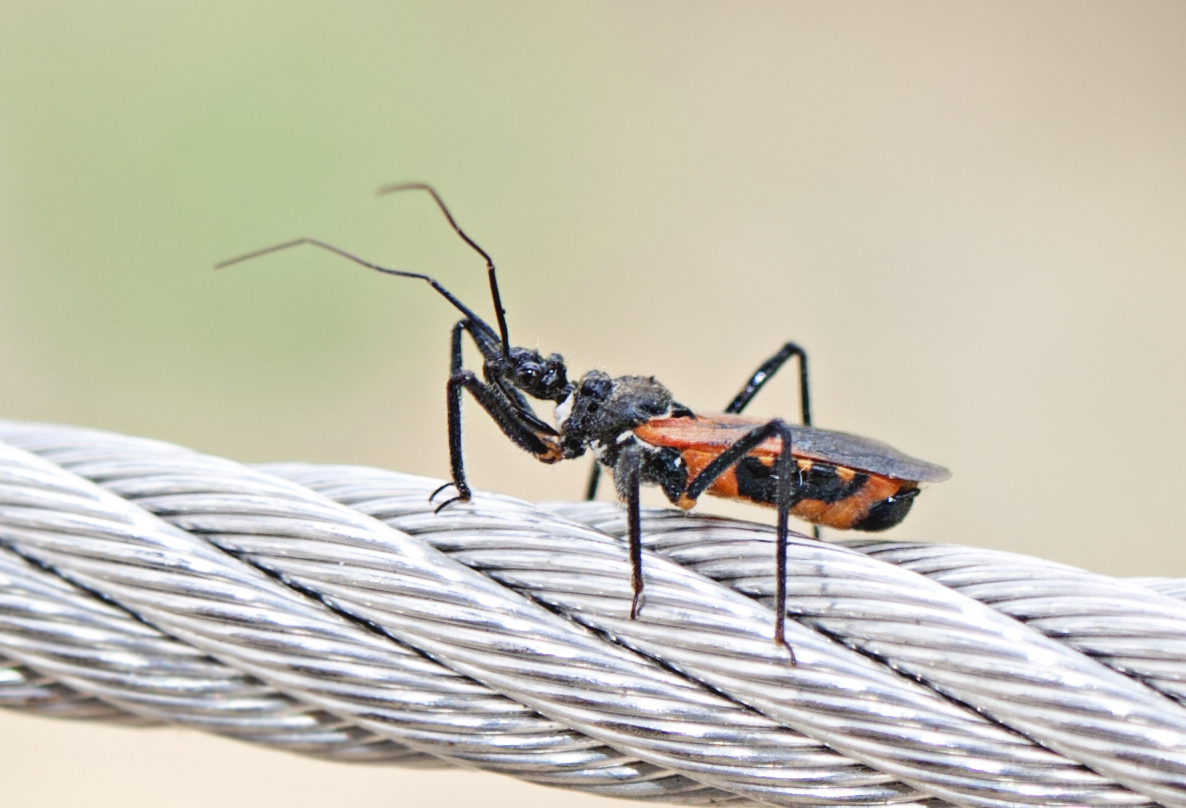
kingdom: Animalia
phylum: Arthropoda
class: Insecta
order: Hemiptera
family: Reduviidae
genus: Catasphactes
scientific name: Catasphactes pyrrhopterus
